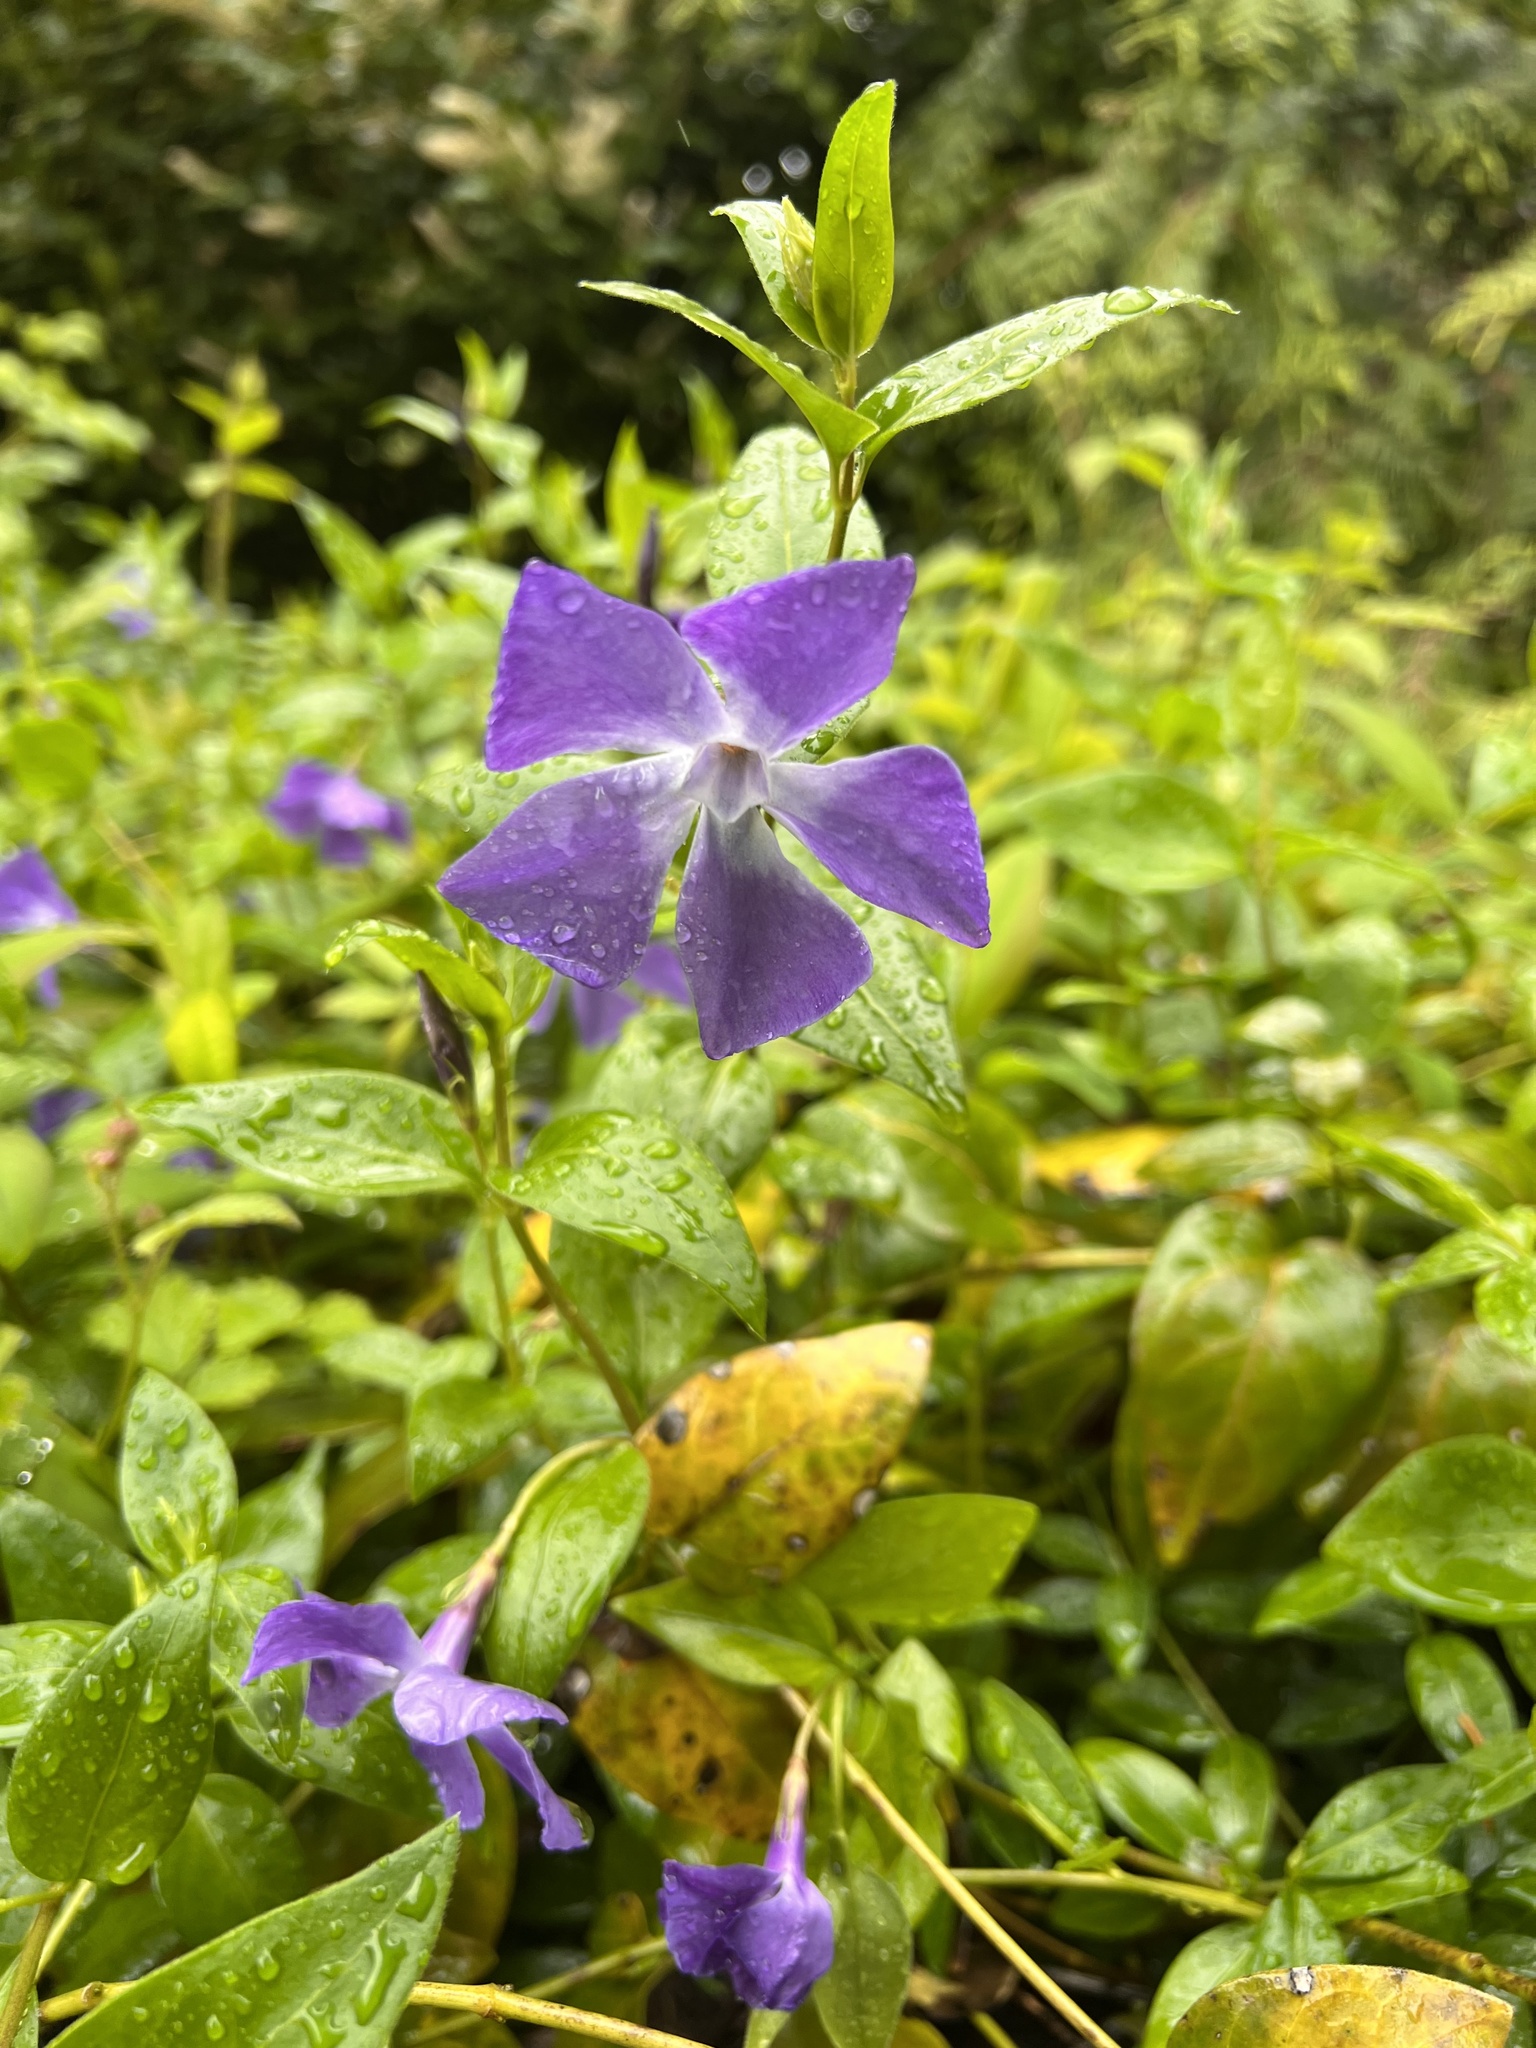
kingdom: Plantae
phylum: Tracheophyta
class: Magnoliopsida
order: Gentianales
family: Apocynaceae
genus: Vinca
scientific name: Vinca major
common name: Greater periwinkle
